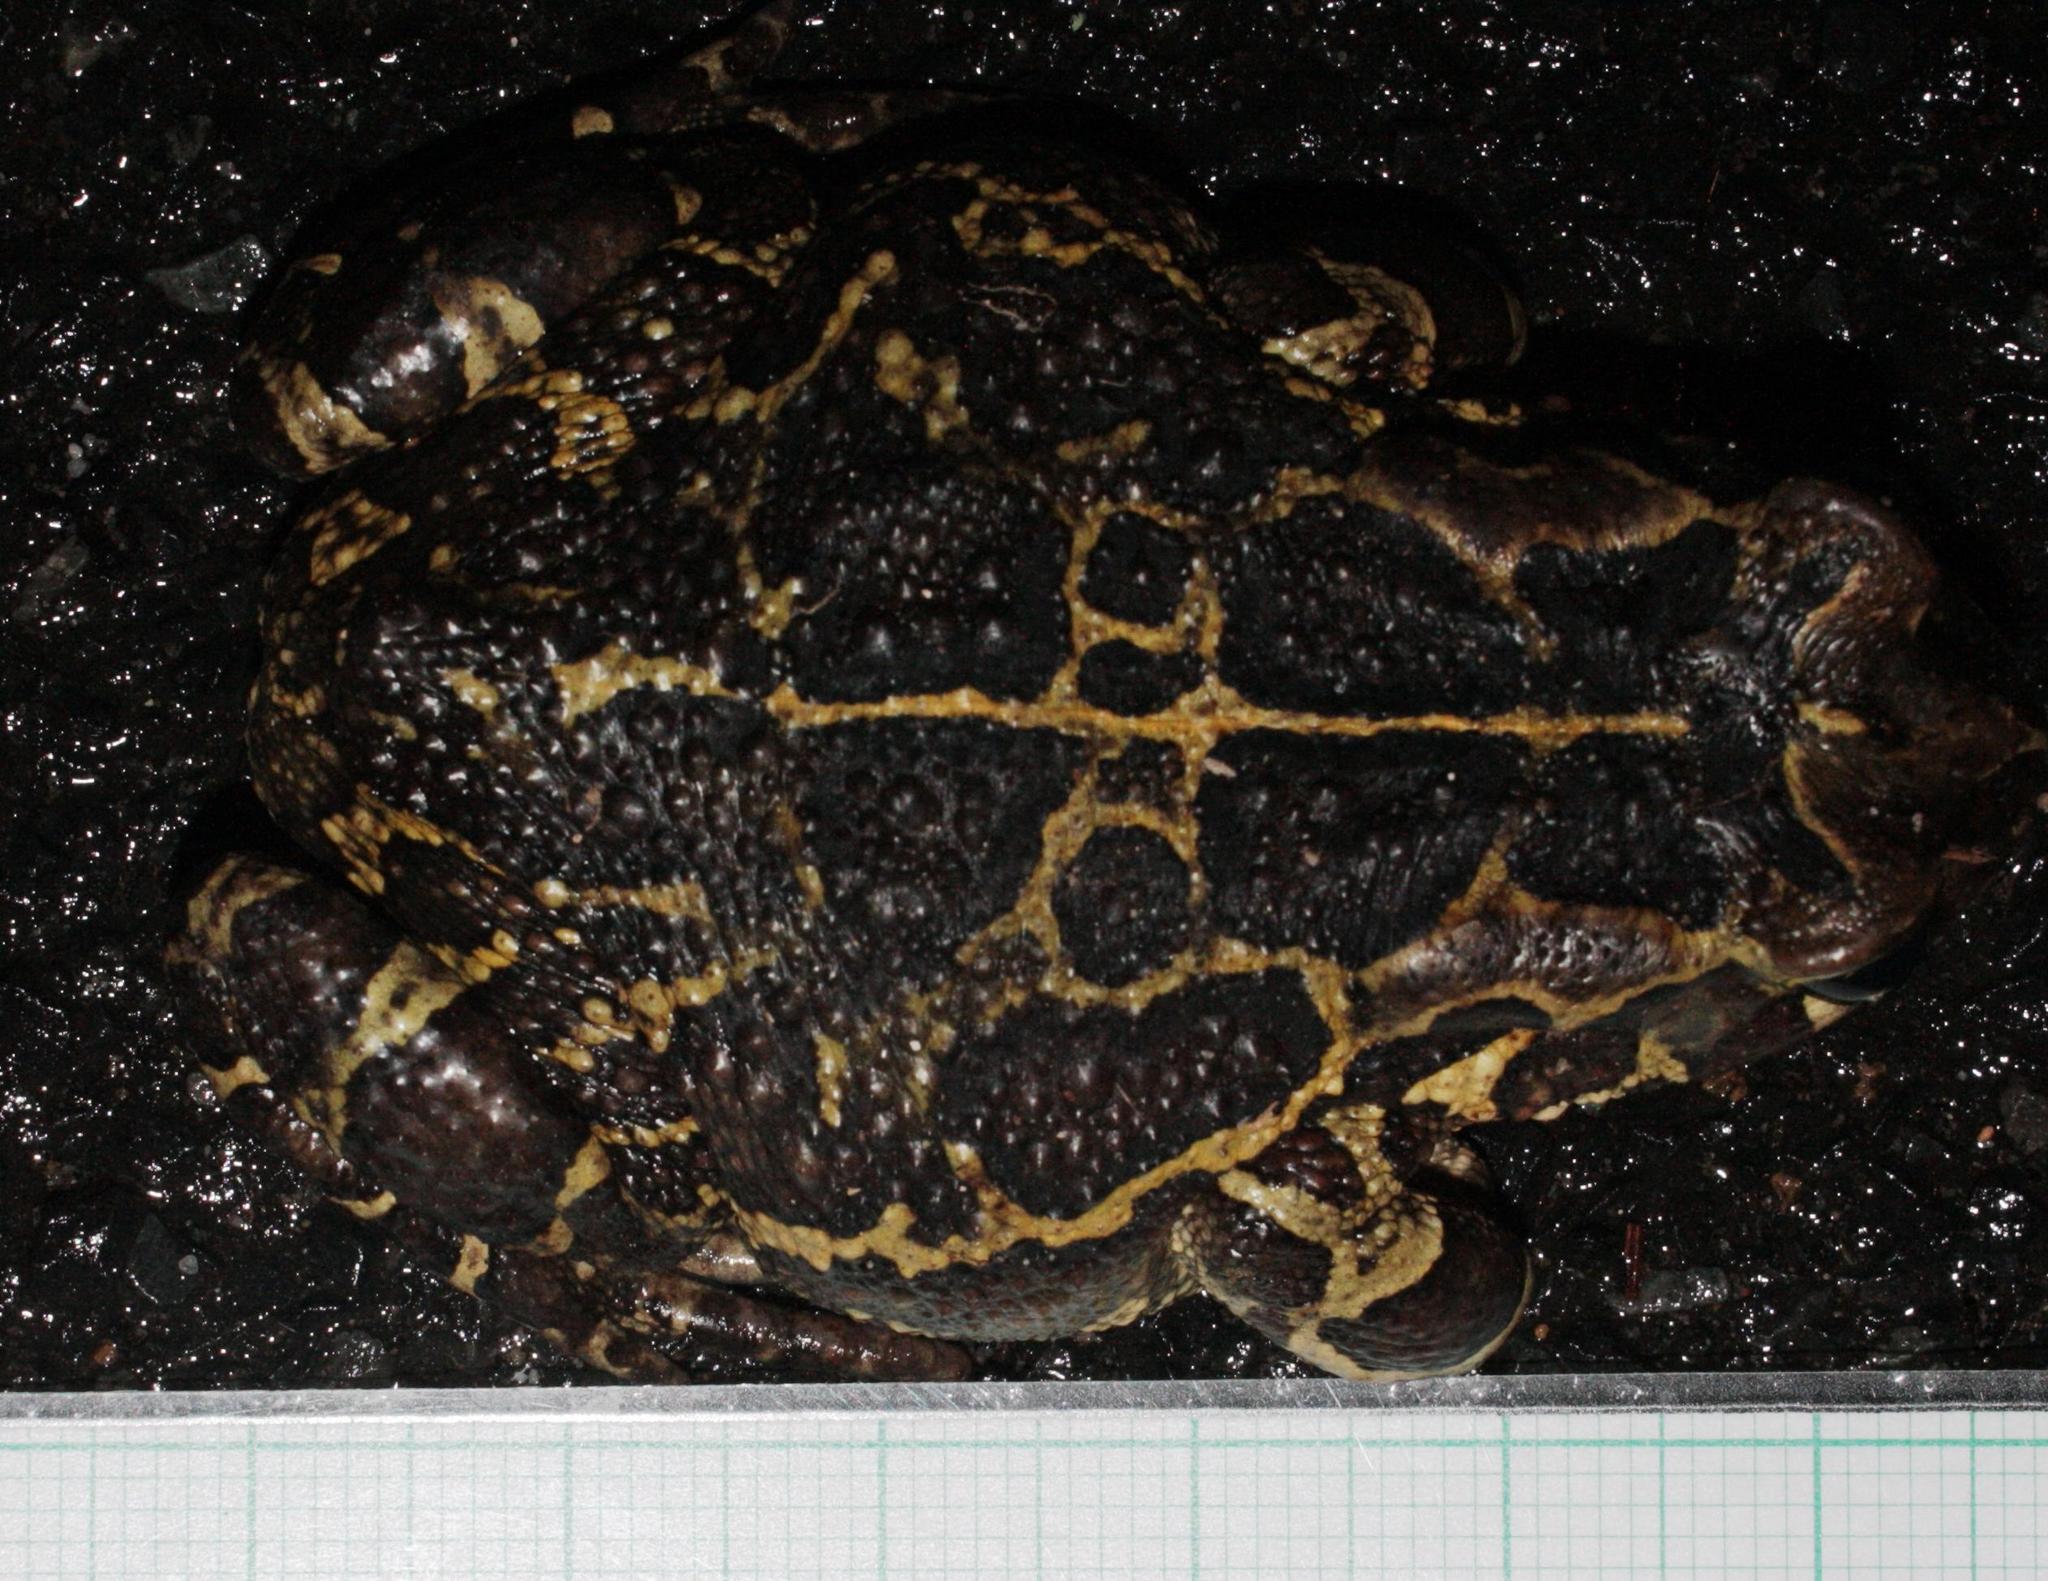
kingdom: Animalia
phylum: Chordata
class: Amphibia
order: Anura
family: Bufonidae
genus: Sclerophrys
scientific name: Sclerophrys pantherina
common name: Panther toad
